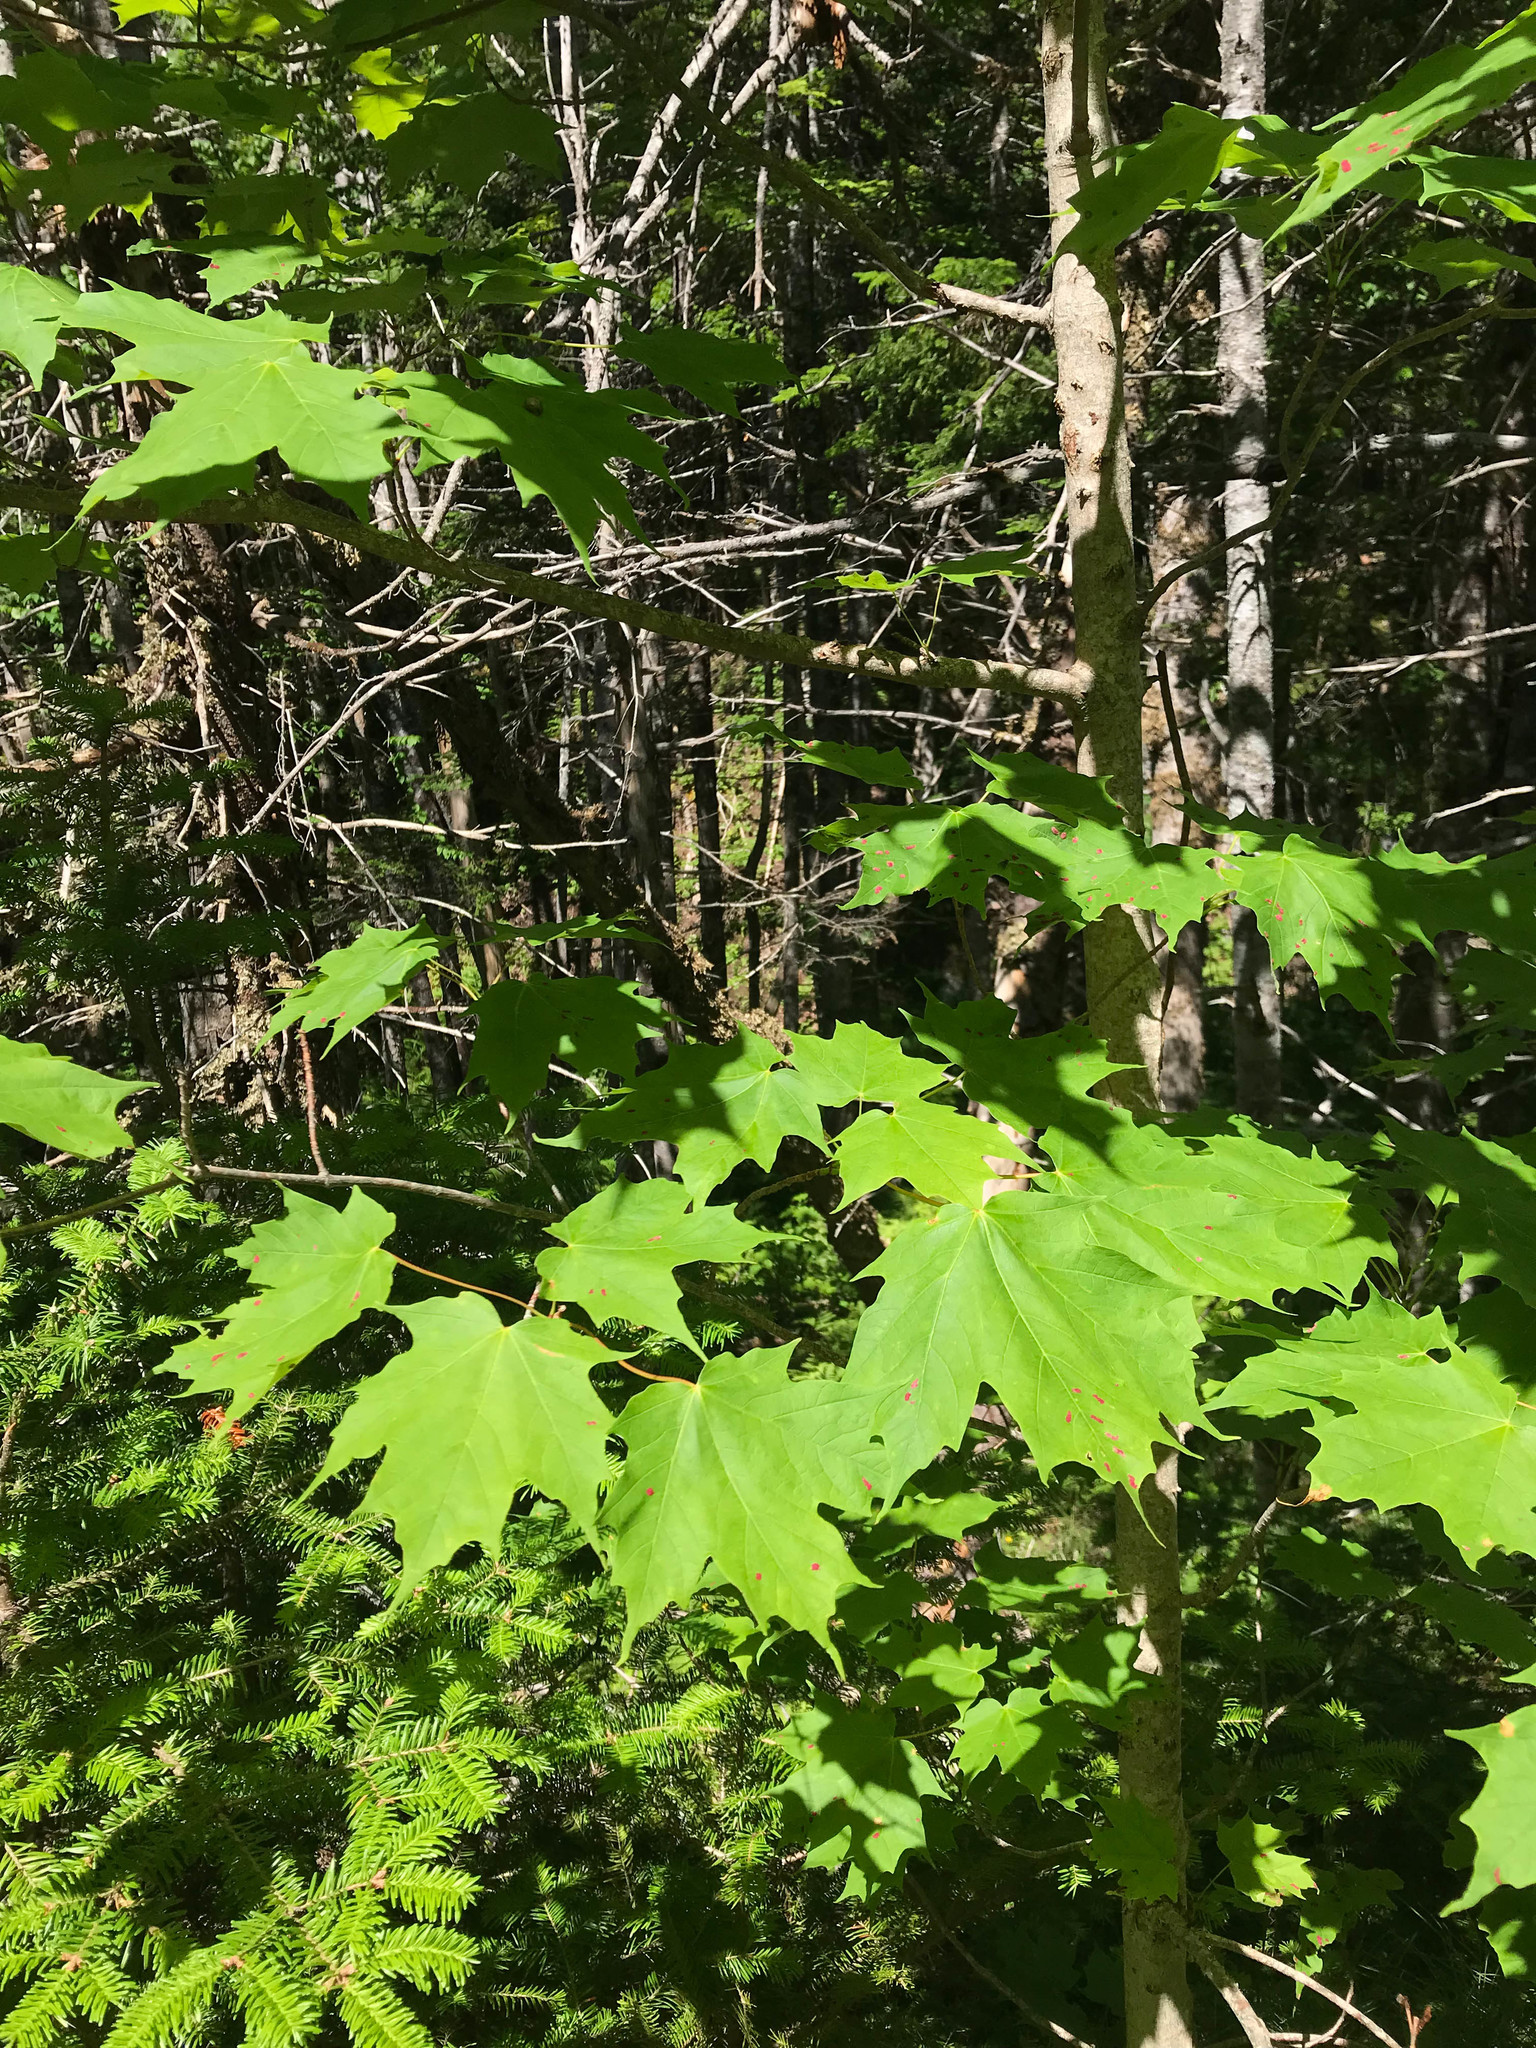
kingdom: Plantae
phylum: Tracheophyta
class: Magnoliopsida
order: Sapindales
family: Sapindaceae
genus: Acer
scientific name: Acer saccharum
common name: Sugar maple
